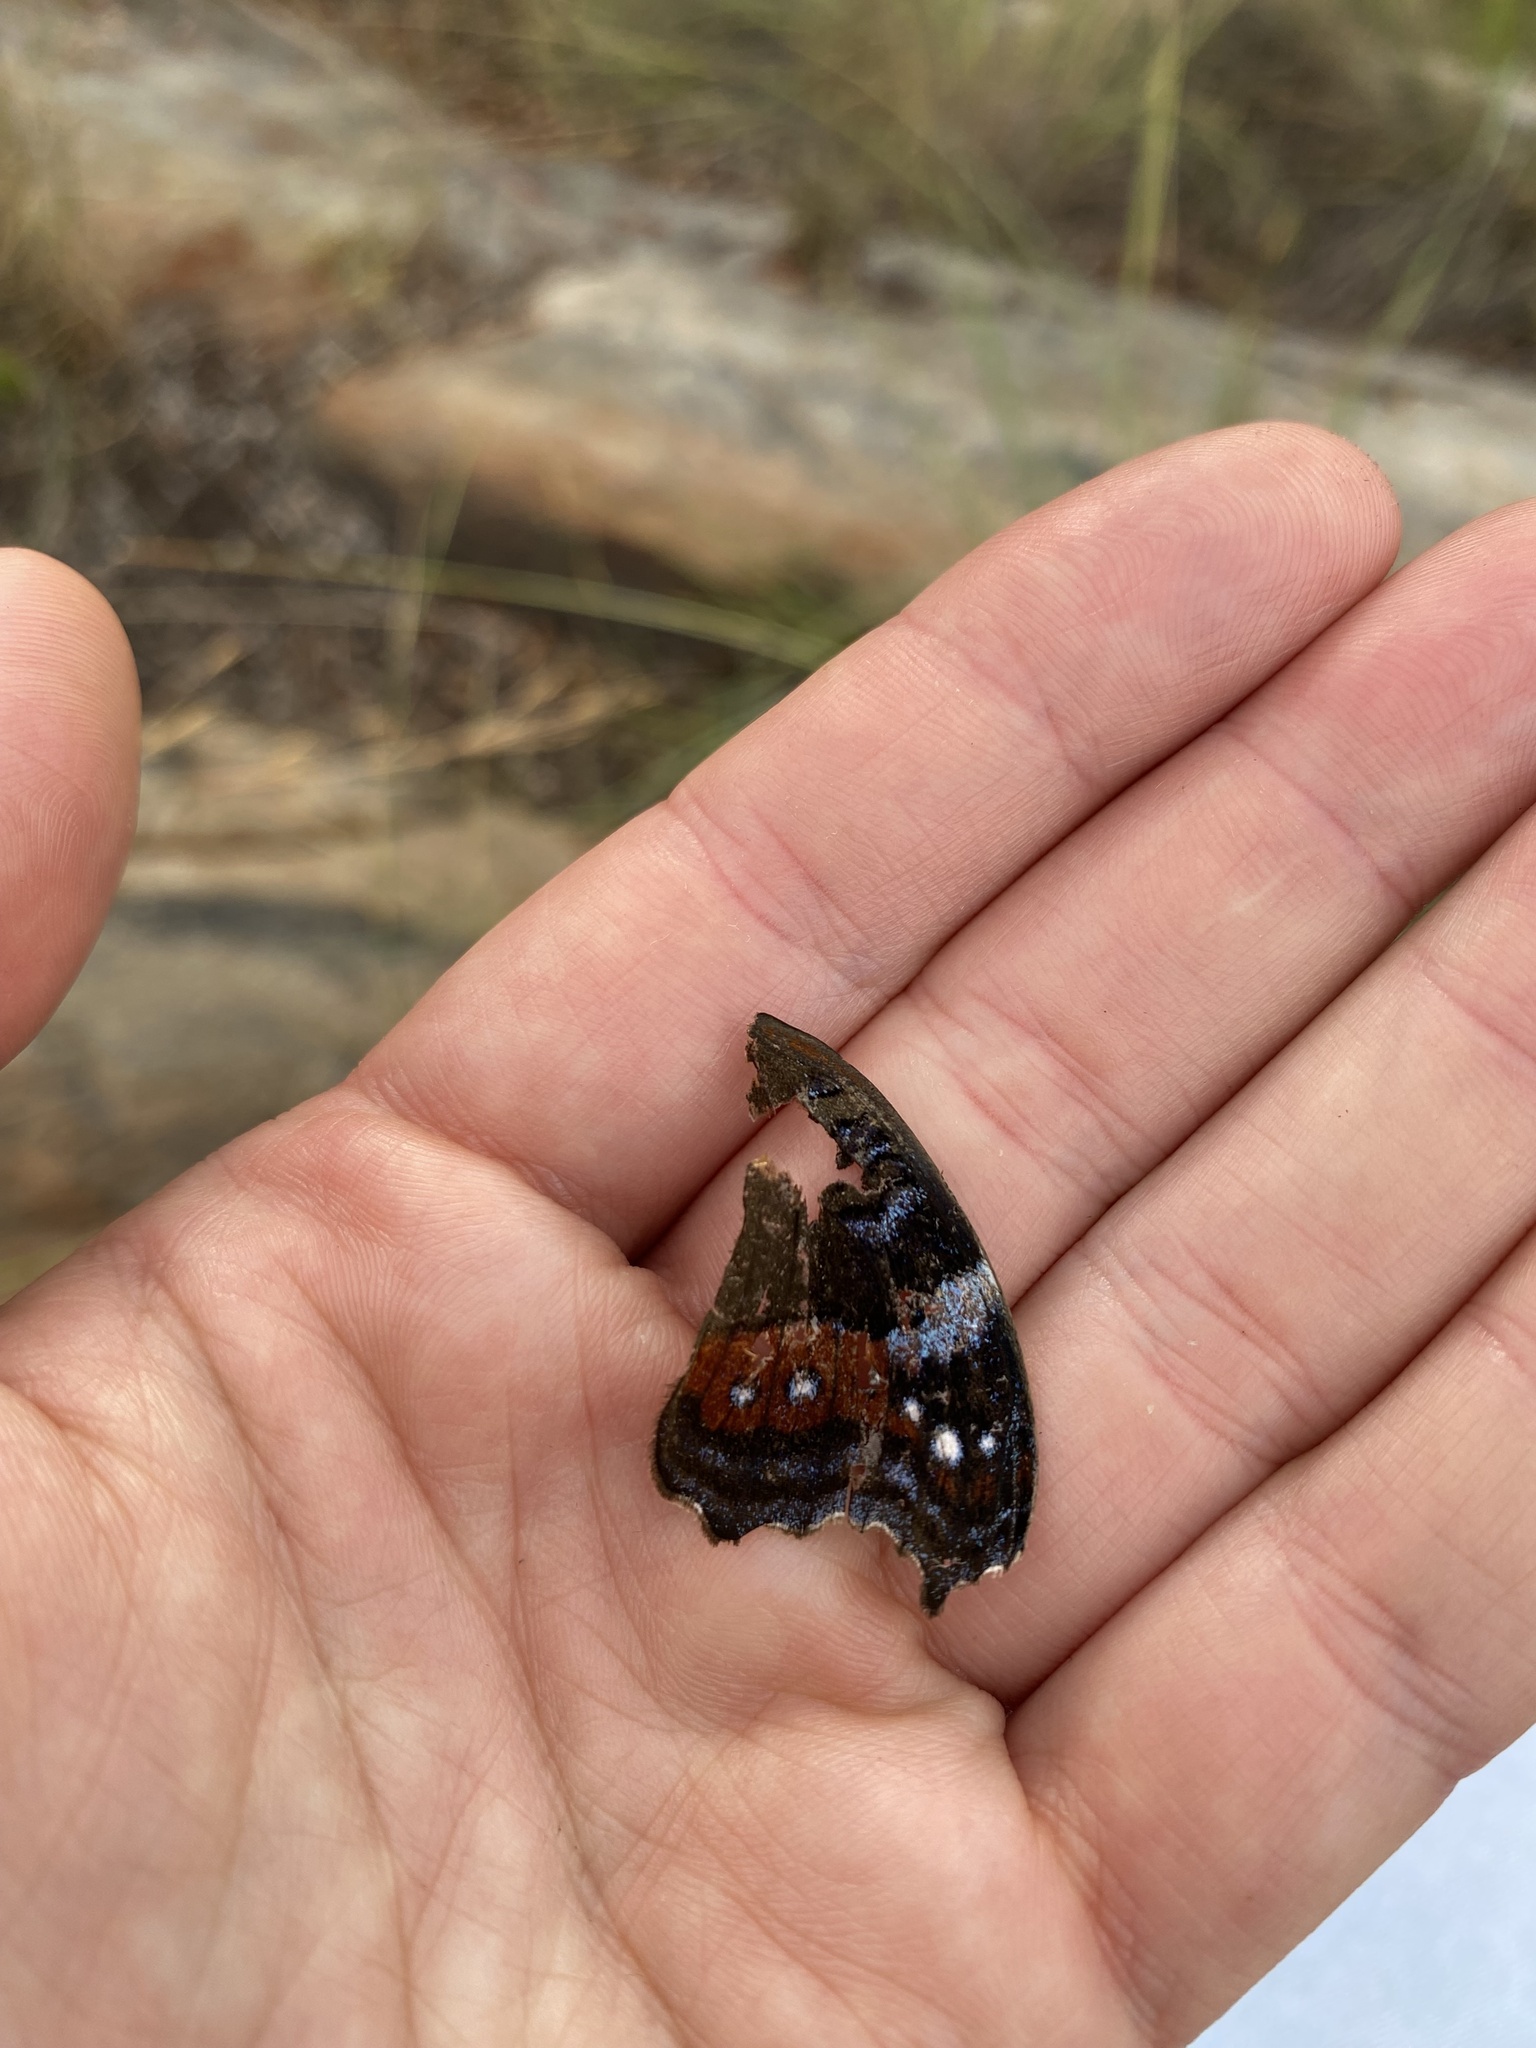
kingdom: Animalia
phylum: Arthropoda
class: Insecta
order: Lepidoptera
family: Nymphalidae
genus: Junonia
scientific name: Junonia archesia
